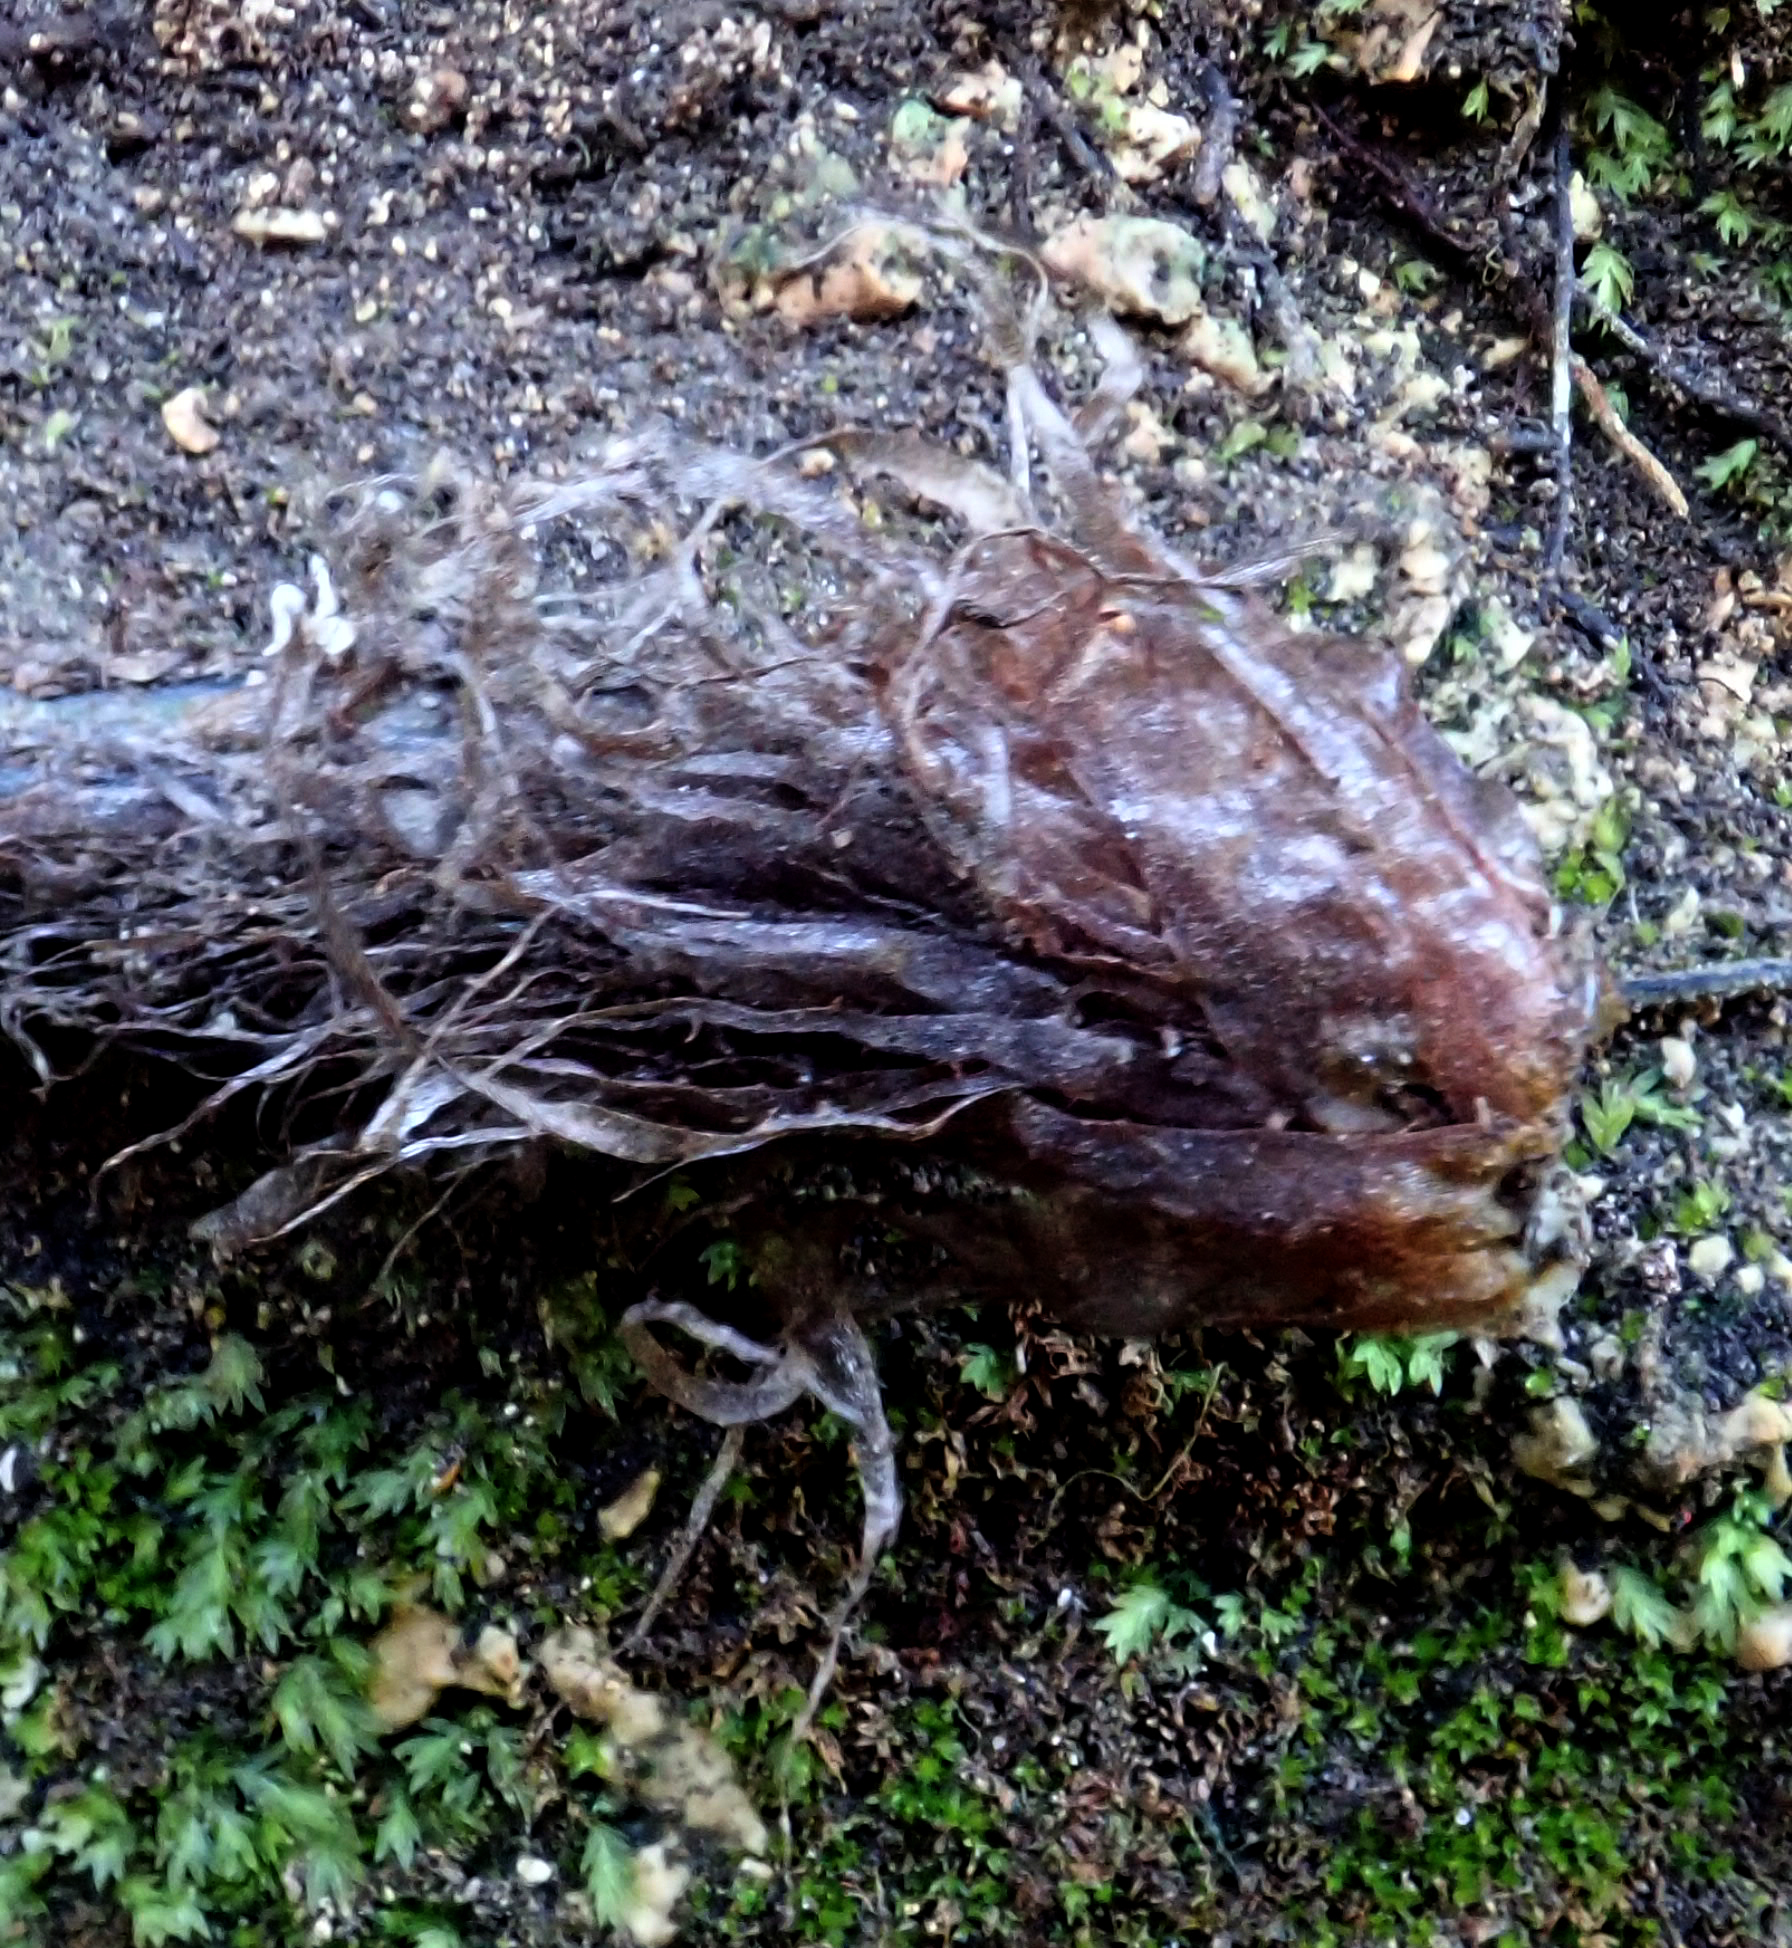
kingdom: Plantae
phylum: Tracheophyta
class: Polypodiopsida
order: Polypodiales
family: Aspleniaceae
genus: Asplenium
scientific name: Asplenium lyallii
